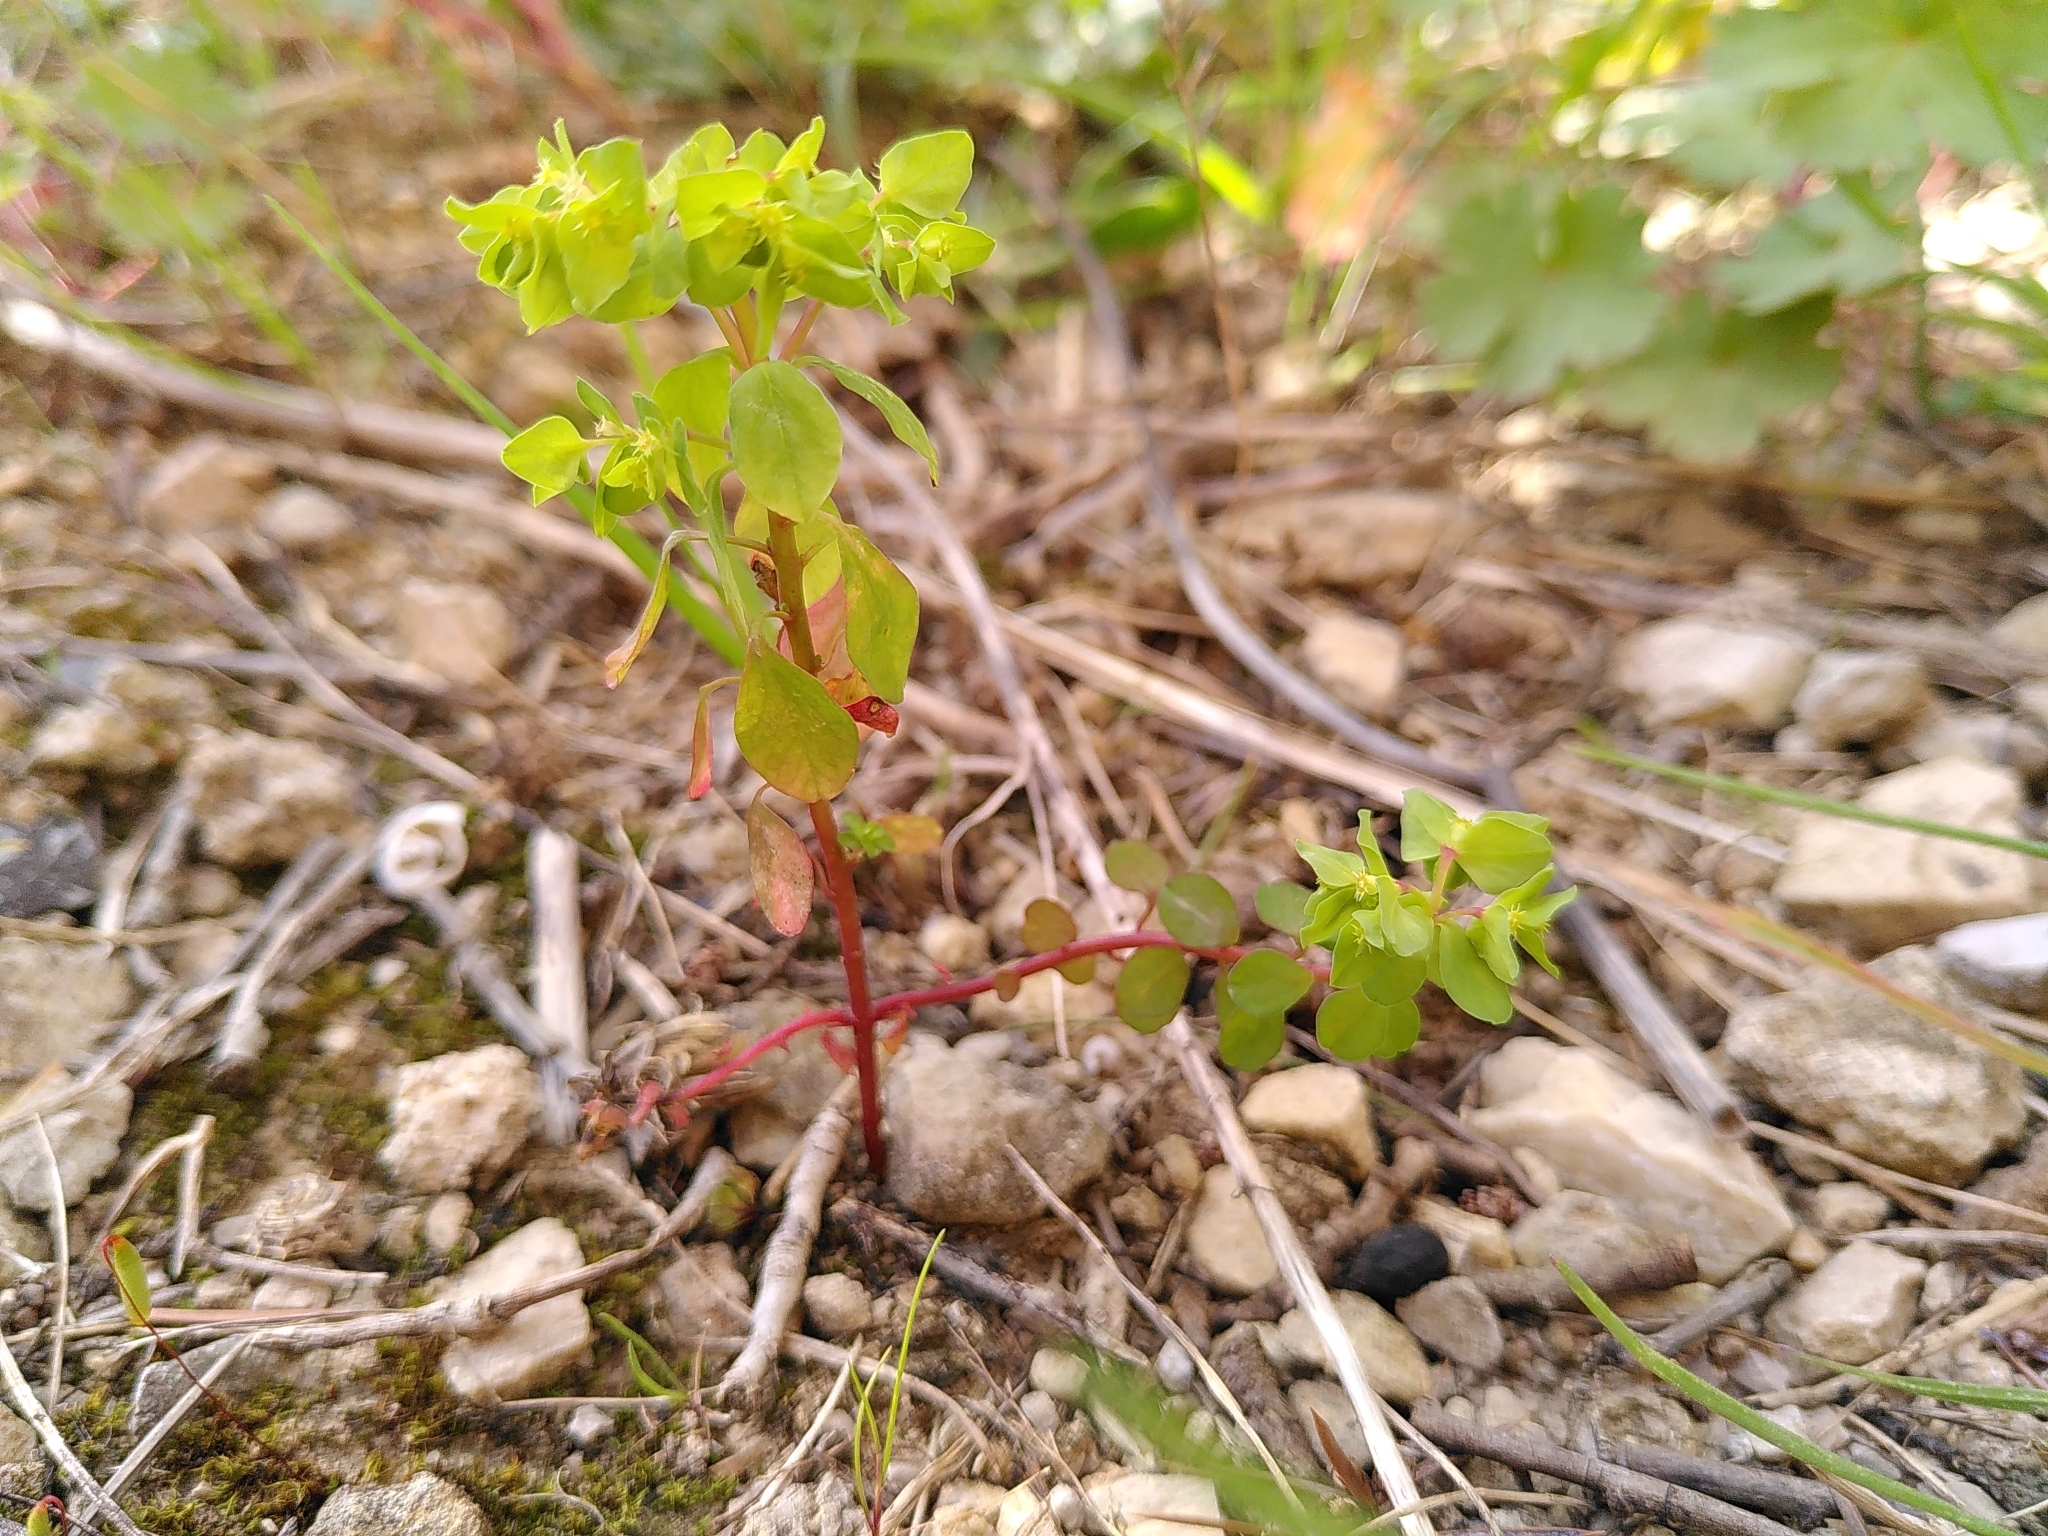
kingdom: Plantae
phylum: Tracheophyta
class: Magnoliopsida
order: Malpighiales
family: Euphorbiaceae
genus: Euphorbia
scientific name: Euphorbia peplus
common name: Petty spurge
